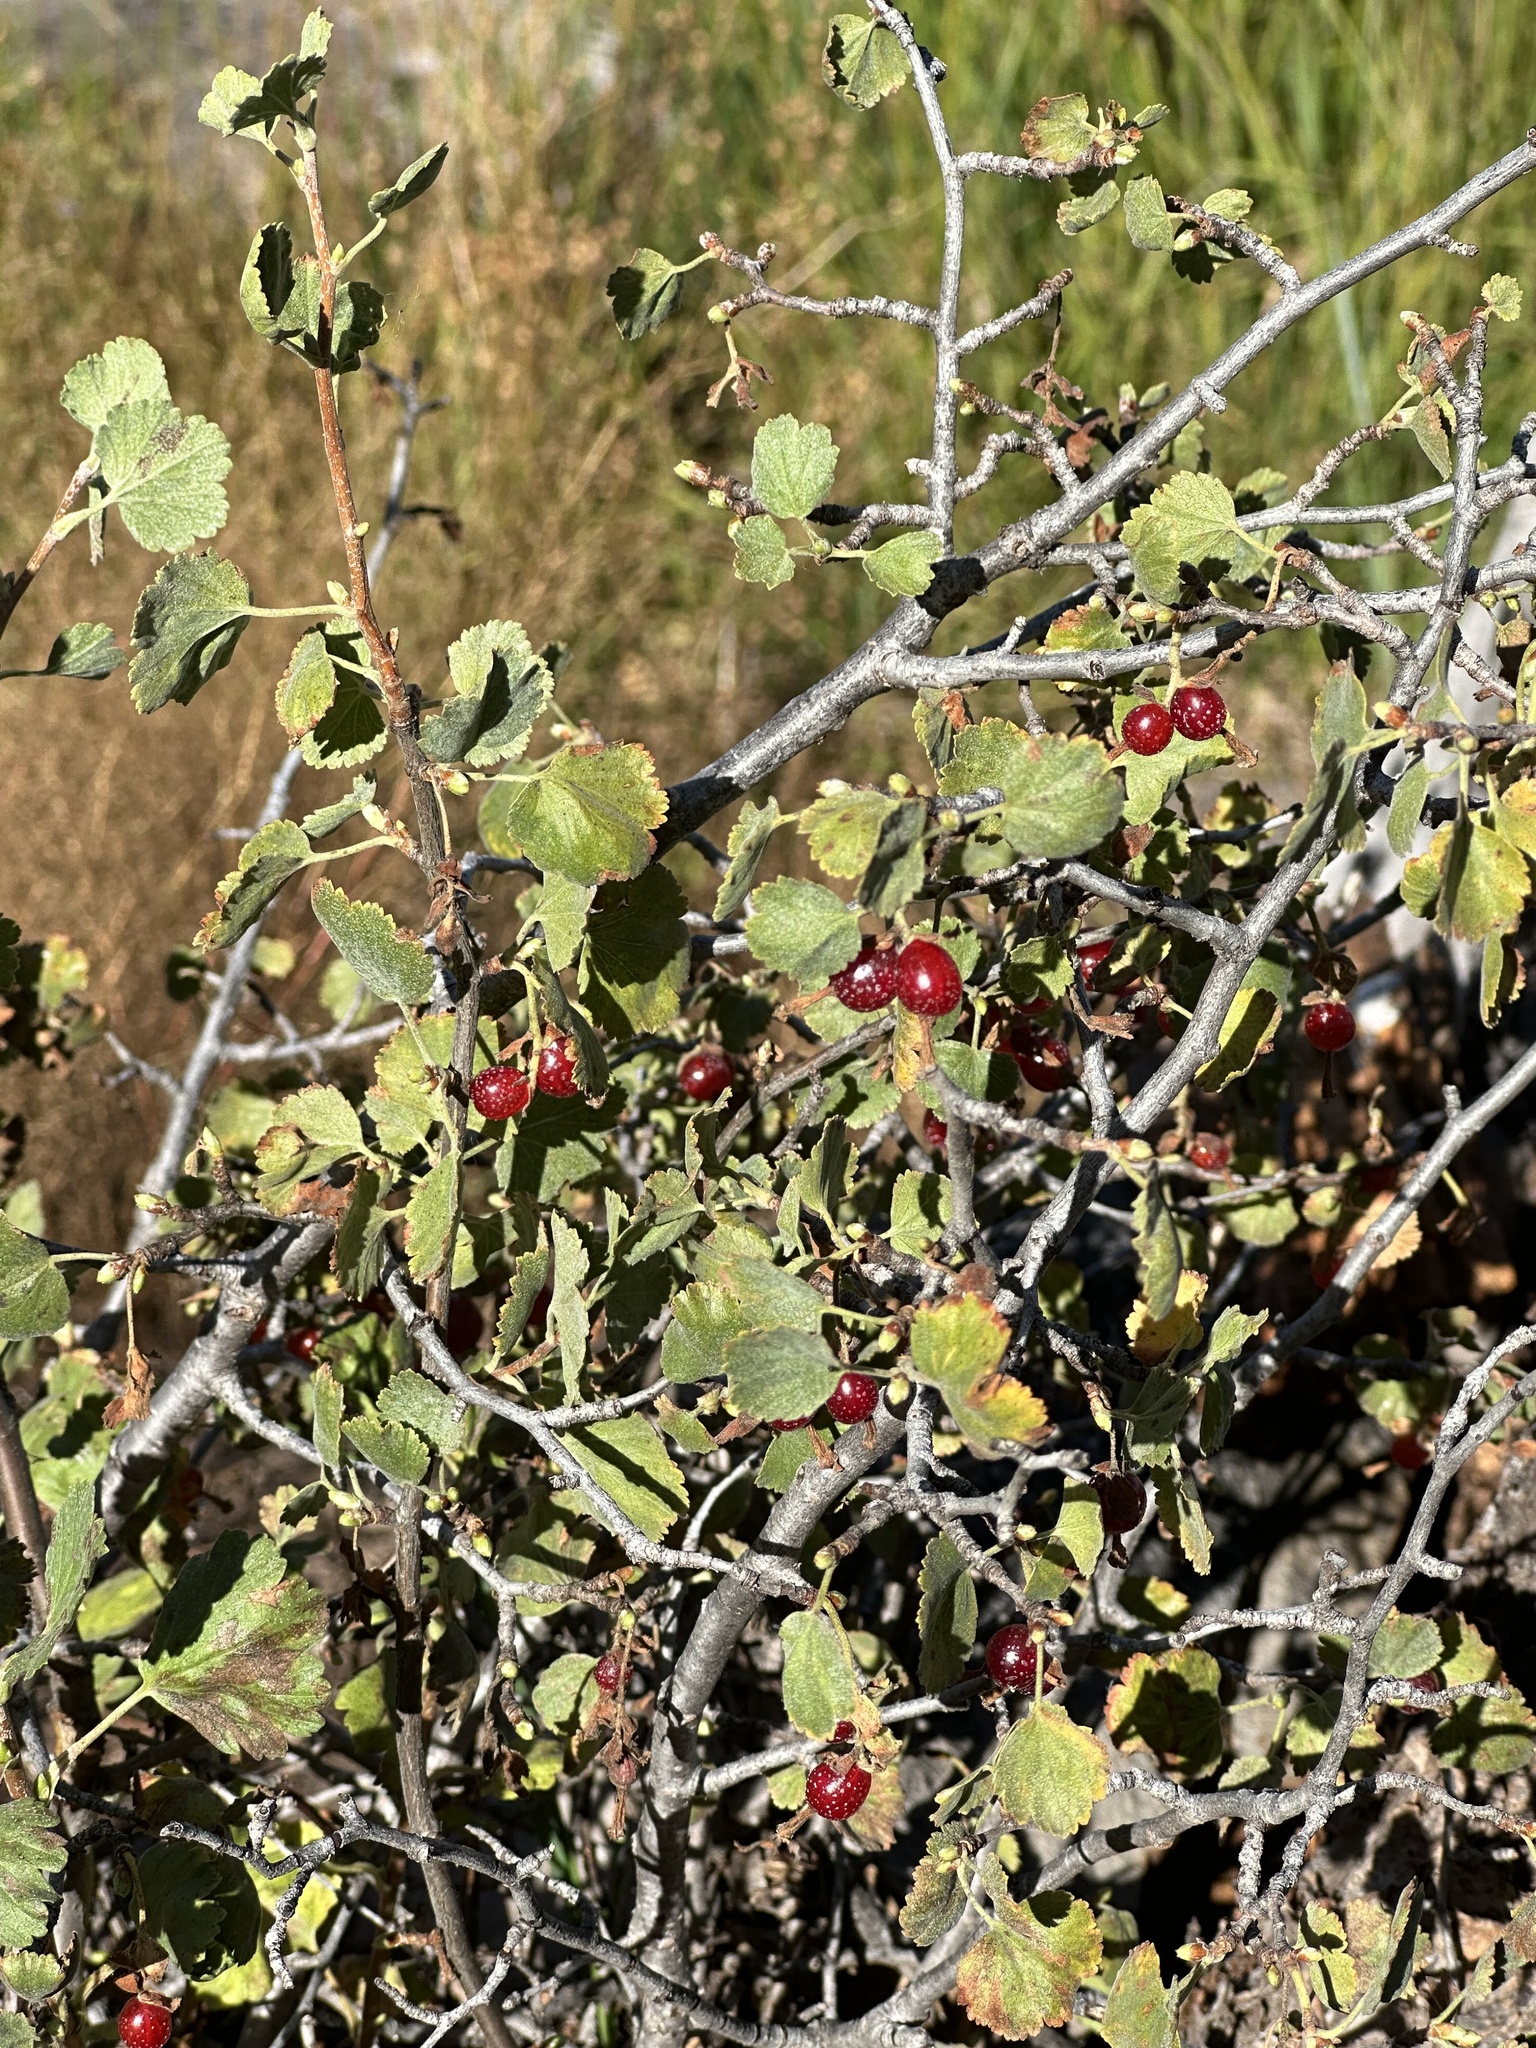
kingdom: Plantae
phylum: Tracheophyta
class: Magnoliopsida
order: Saxifragales
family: Grossulariaceae
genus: Ribes
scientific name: Ribes cereum
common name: Wax currant
